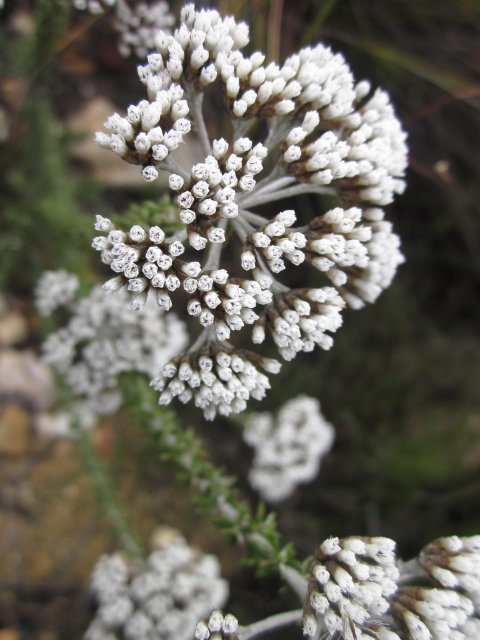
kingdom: Plantae
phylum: Tracheophyta
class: Magnoliopsida
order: Asterales
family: Asteraceae
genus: Metalasia
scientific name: Metalasia densa
